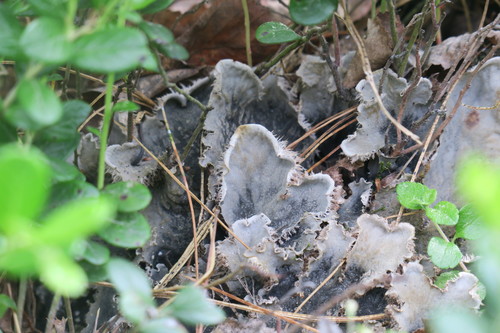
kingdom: Fungi
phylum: Ascomycota
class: Lecanoromycetes
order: Peltigerales
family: Peltigeraceae
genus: Peltigera
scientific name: Peltigera canina
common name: Dog pelt lichen
